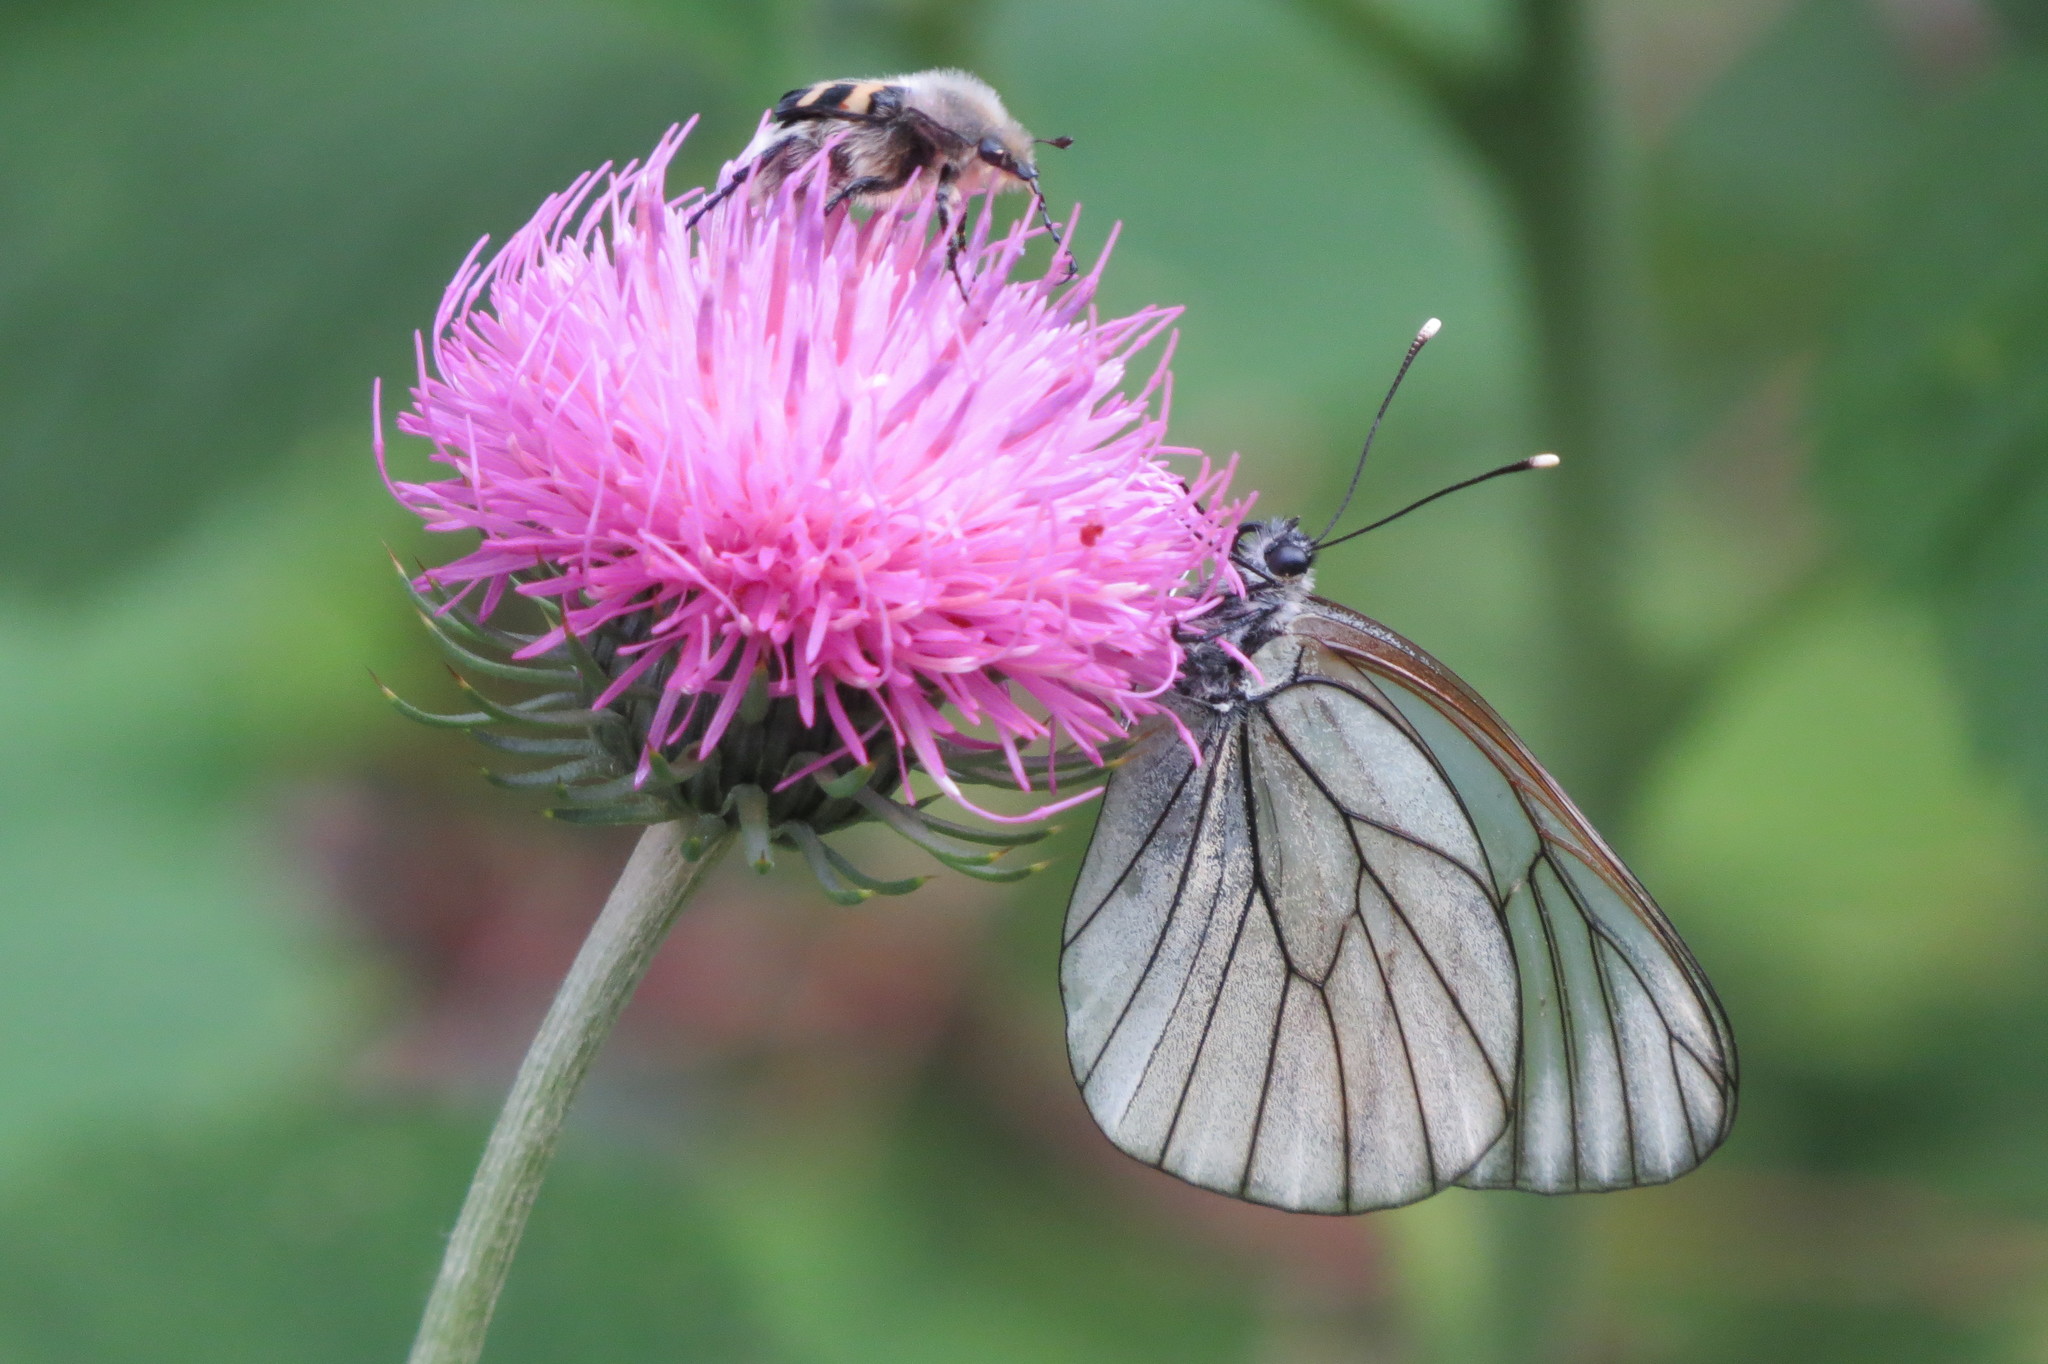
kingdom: Animalia
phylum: Arthropoda
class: Insecta
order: Lepidoptera
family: Pieridae
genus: Aporia
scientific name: Aporia crataegi
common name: Black-veined white
